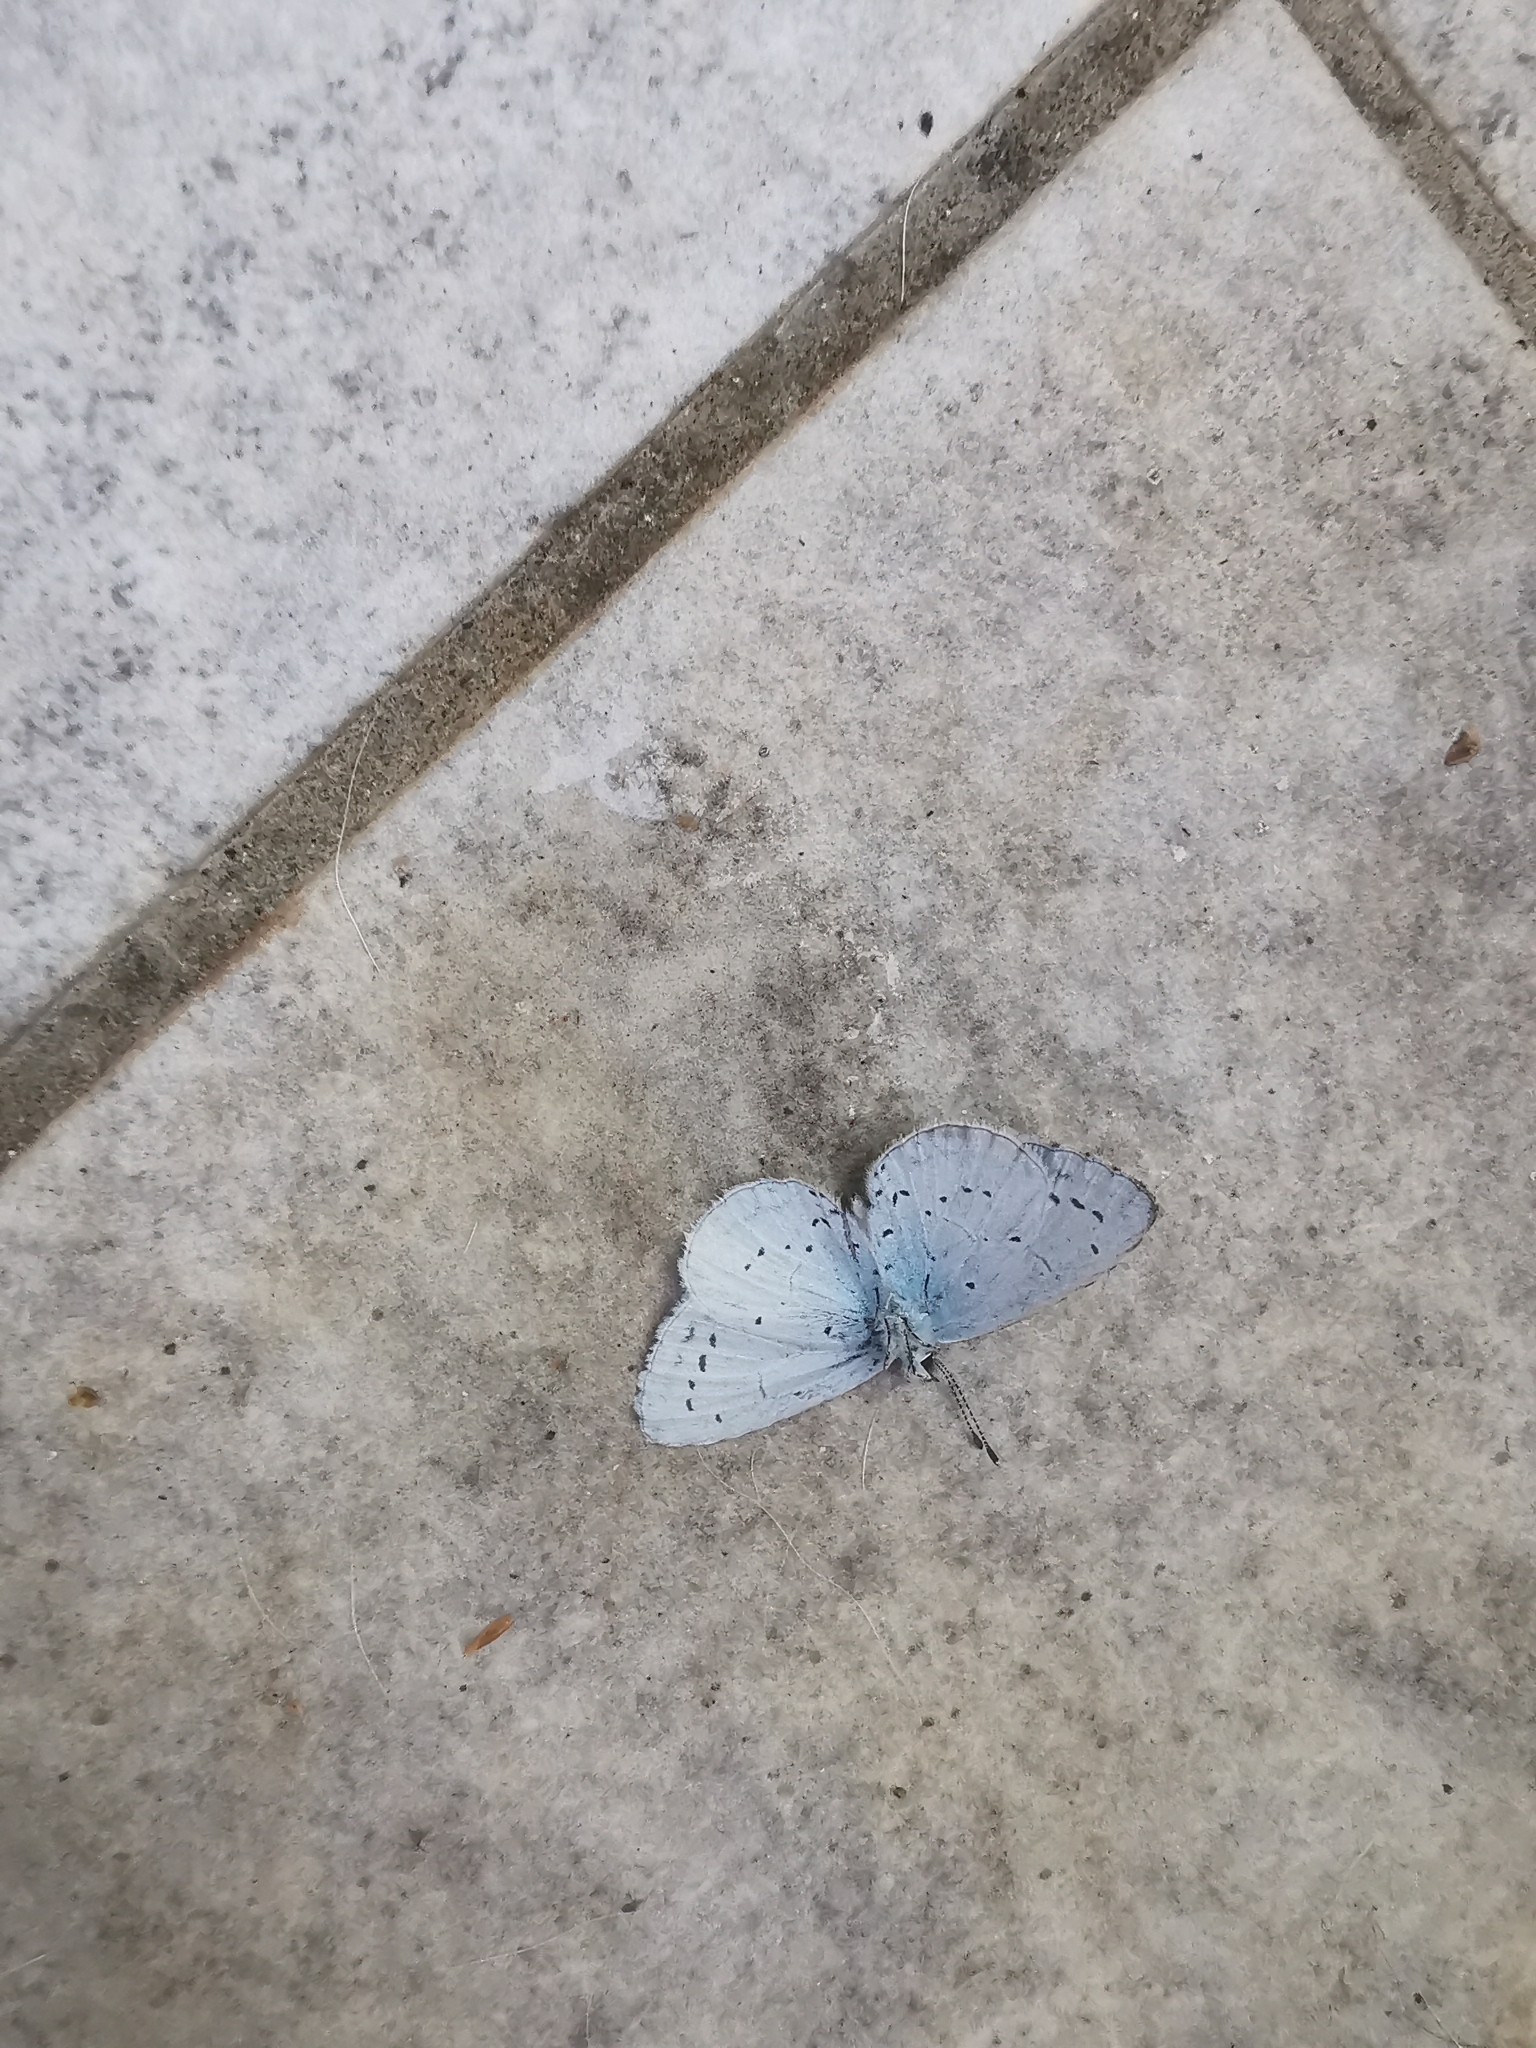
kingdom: Animalia
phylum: Arthropoda
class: Insecta
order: Lepidoptera
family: Lycaenidae
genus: Celastrina
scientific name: Celastrina argiolus
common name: Holly blue
